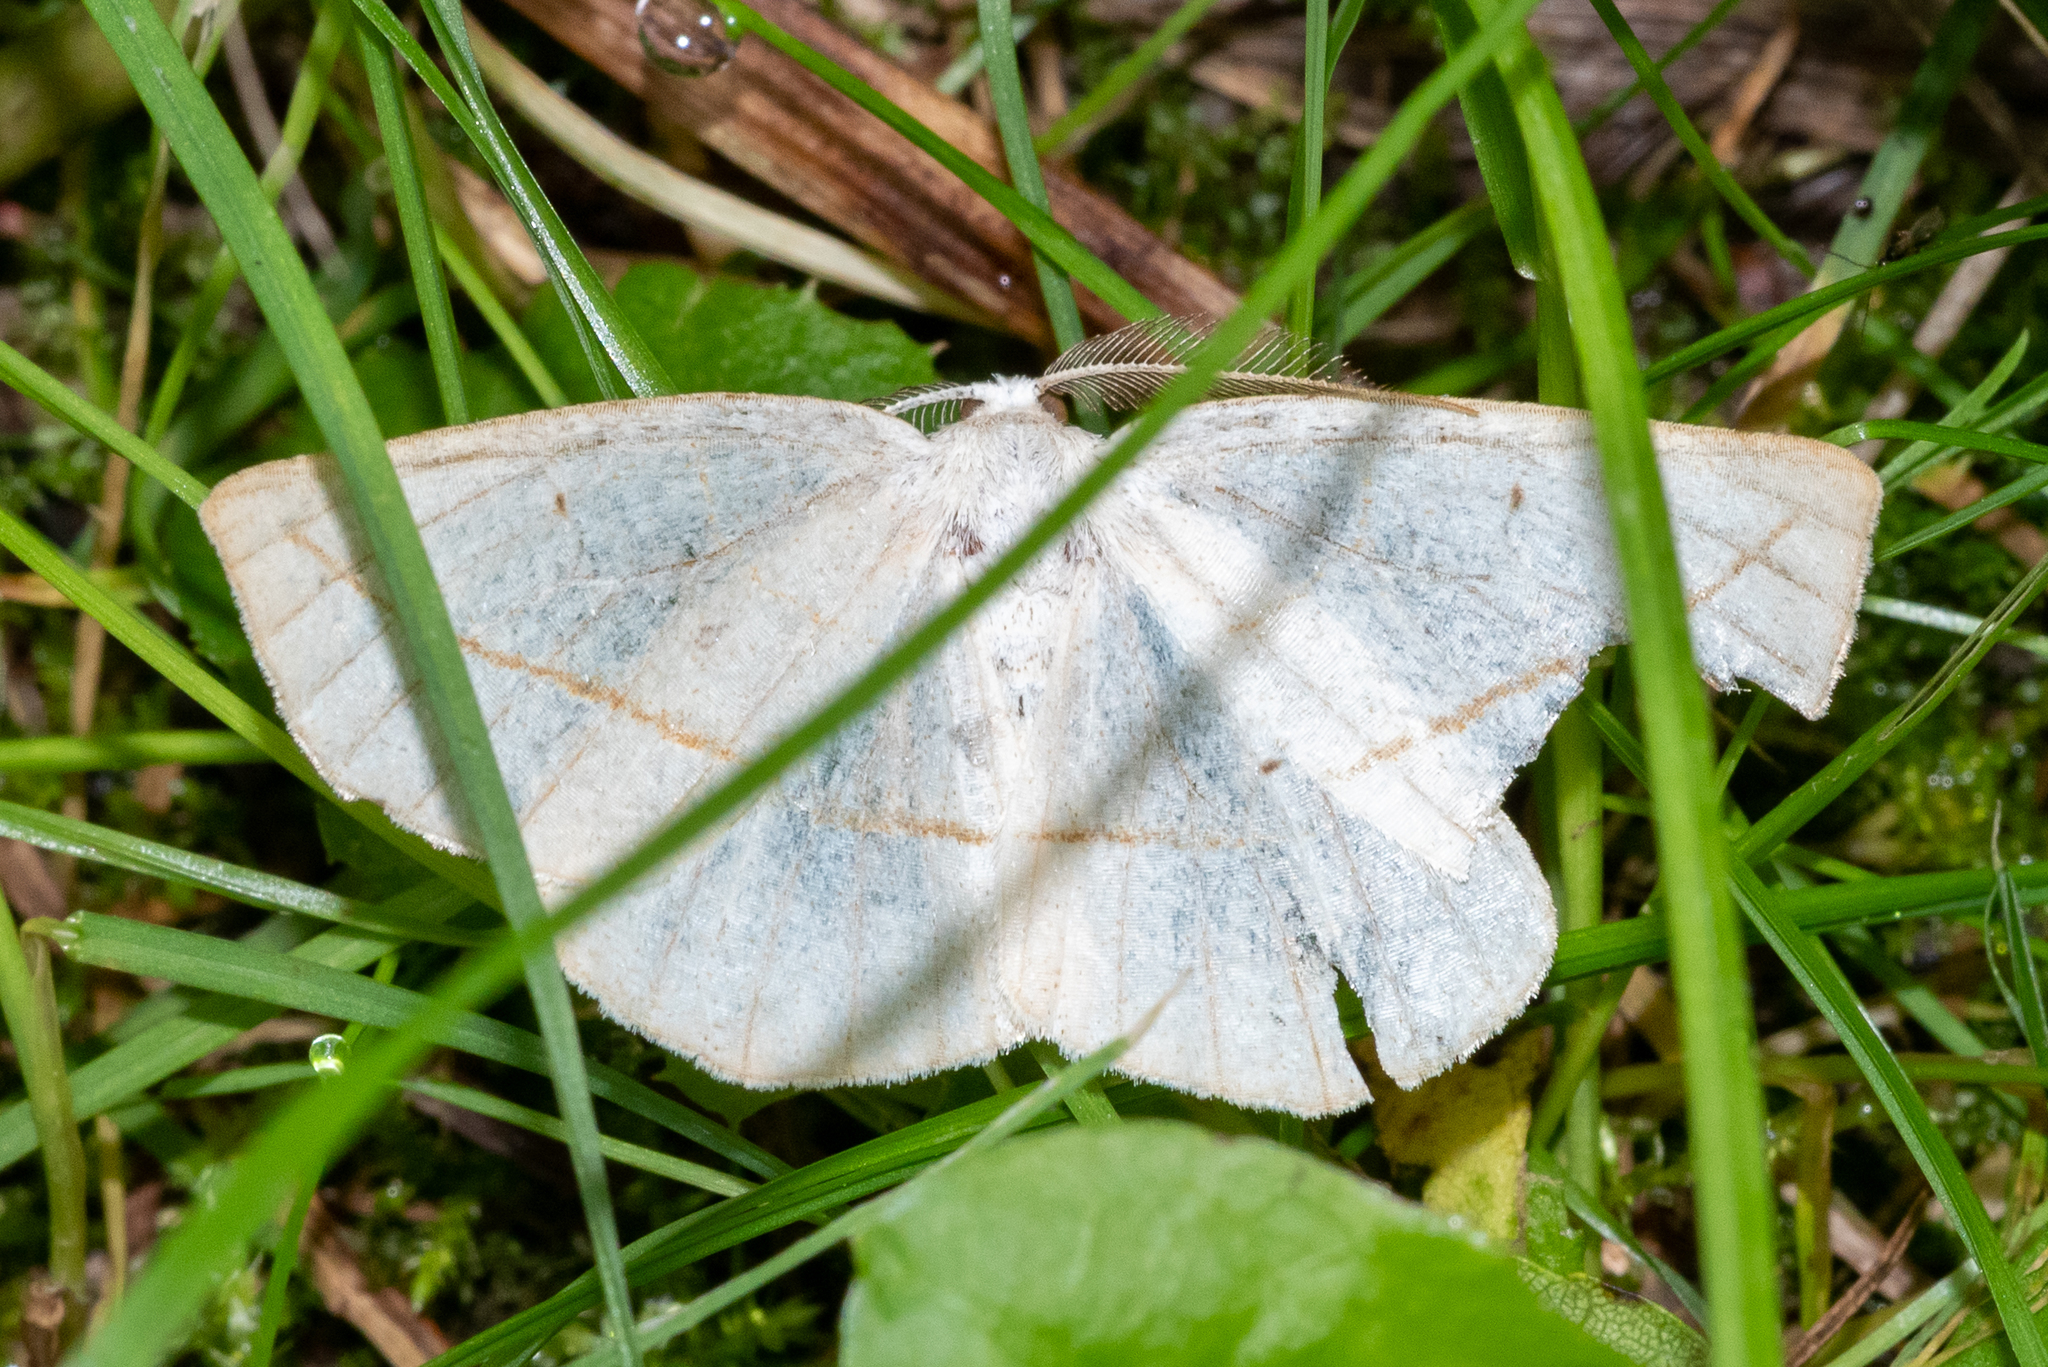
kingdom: Animalia
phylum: Arthropoda
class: Insecta
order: Lepidoptera
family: Geometridae
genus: Eusarca
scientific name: Eusarca confusaria
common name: Confused eusarca
